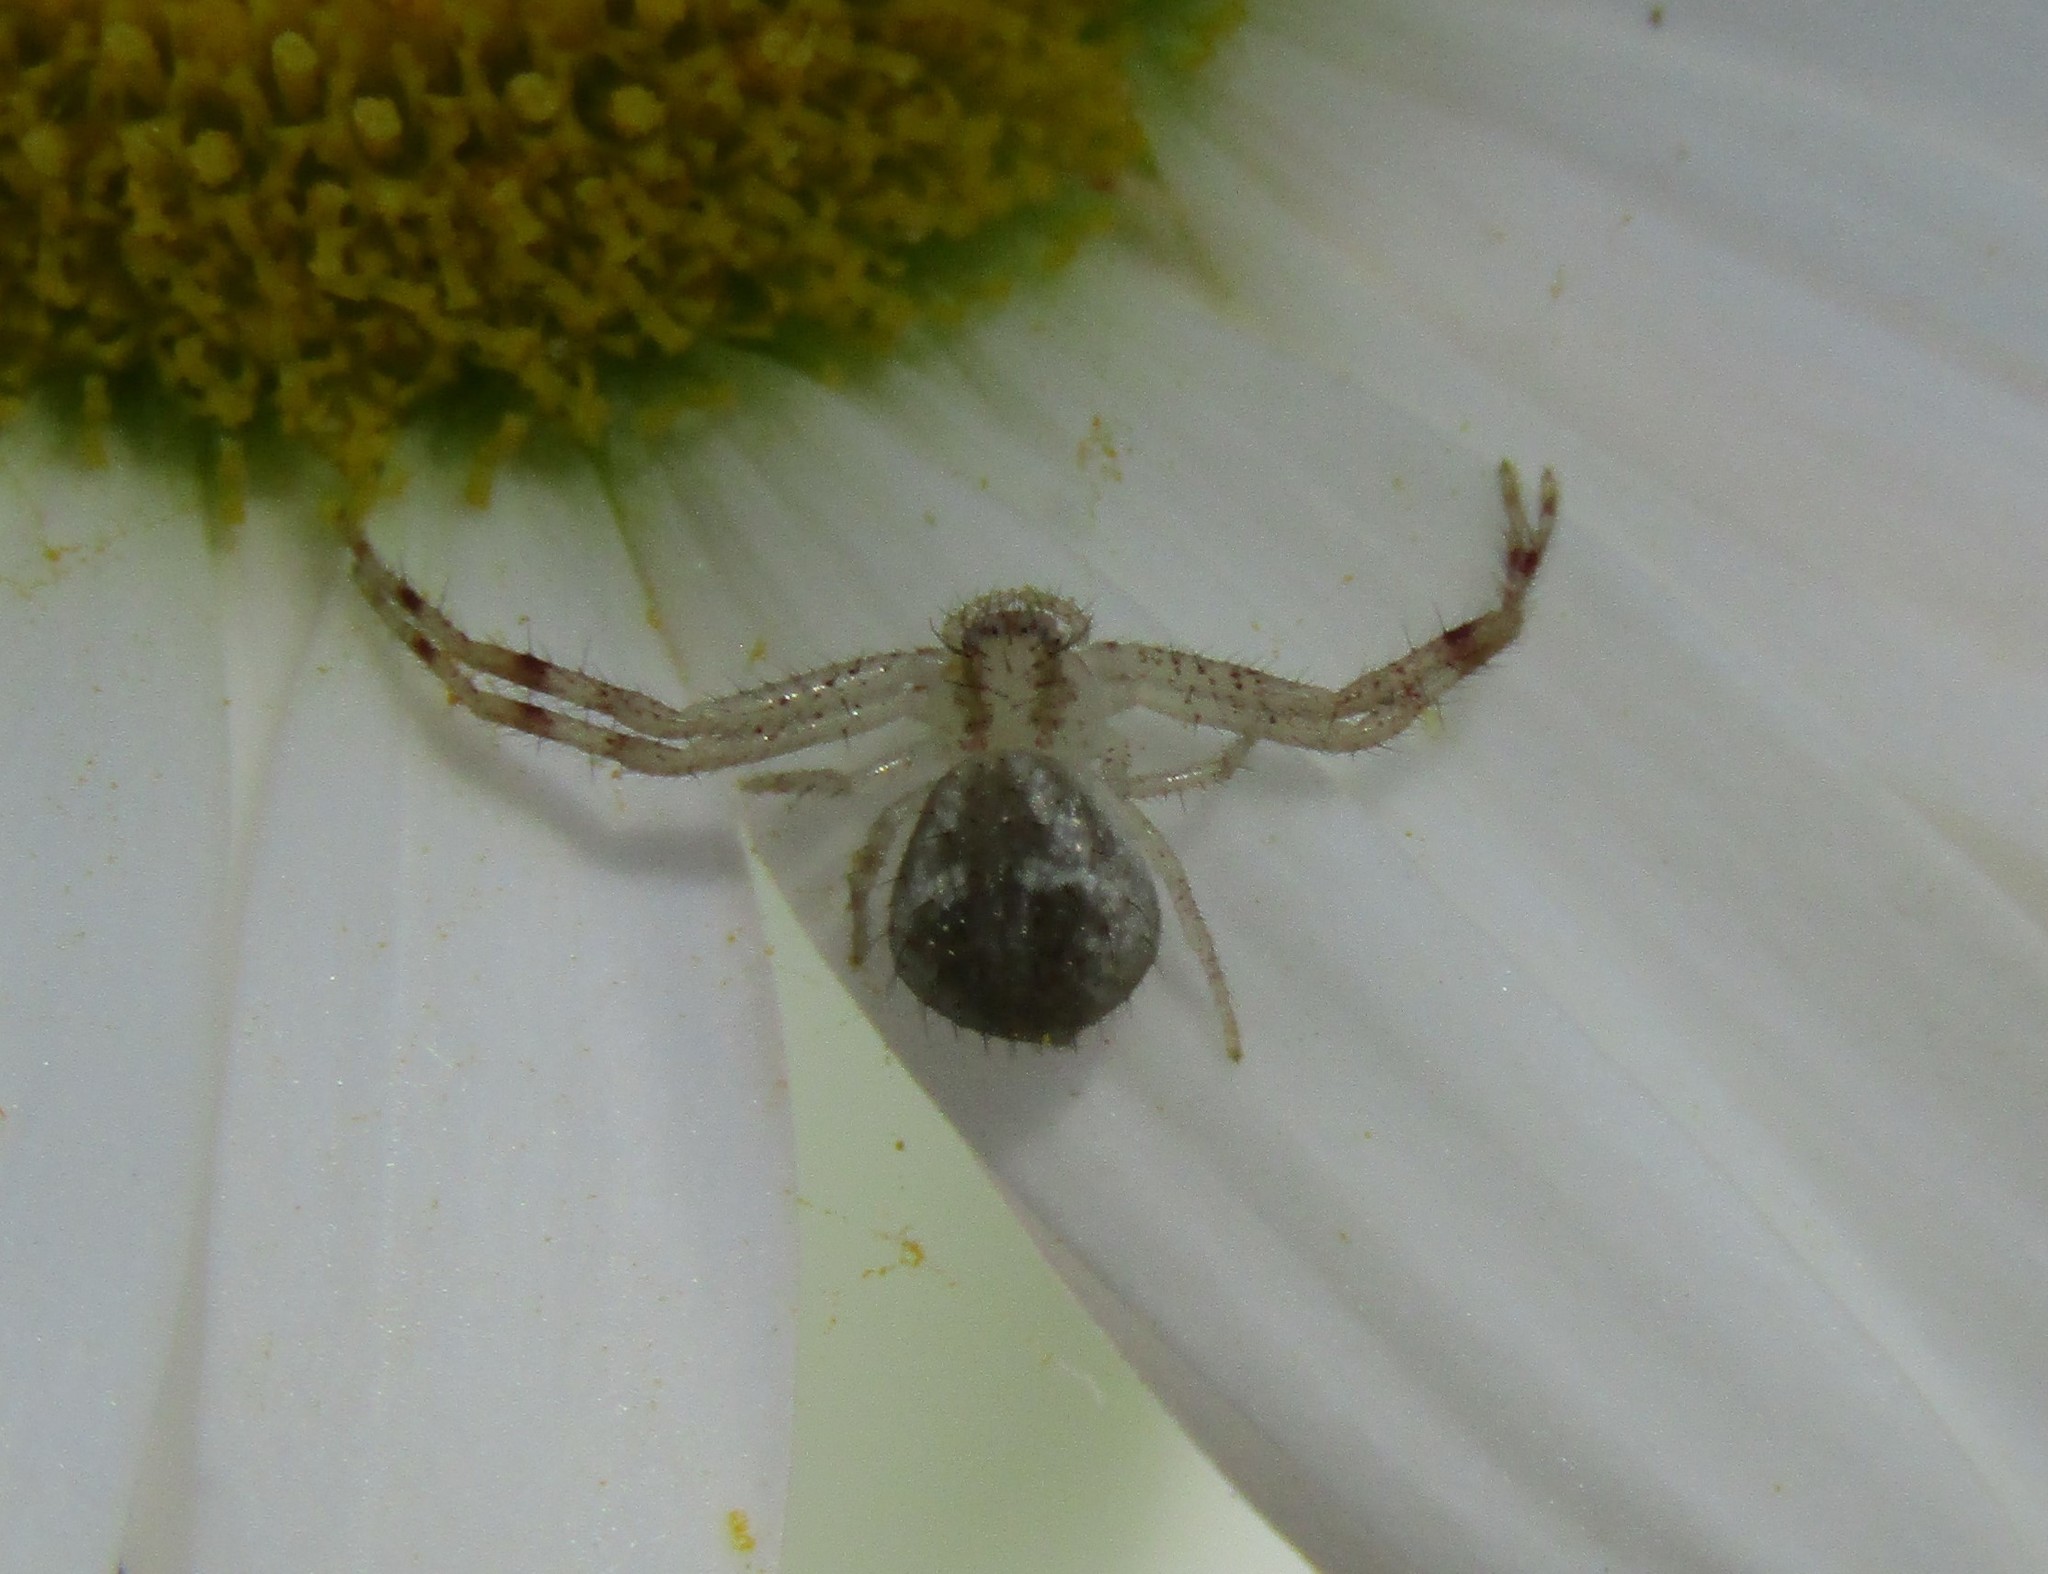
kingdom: Animalia
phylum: Arthropoda
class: Arachnida
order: Araneae
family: Thomisidae
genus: Mecaphesa
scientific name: Mecaphesa asperata
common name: Crab spiders
